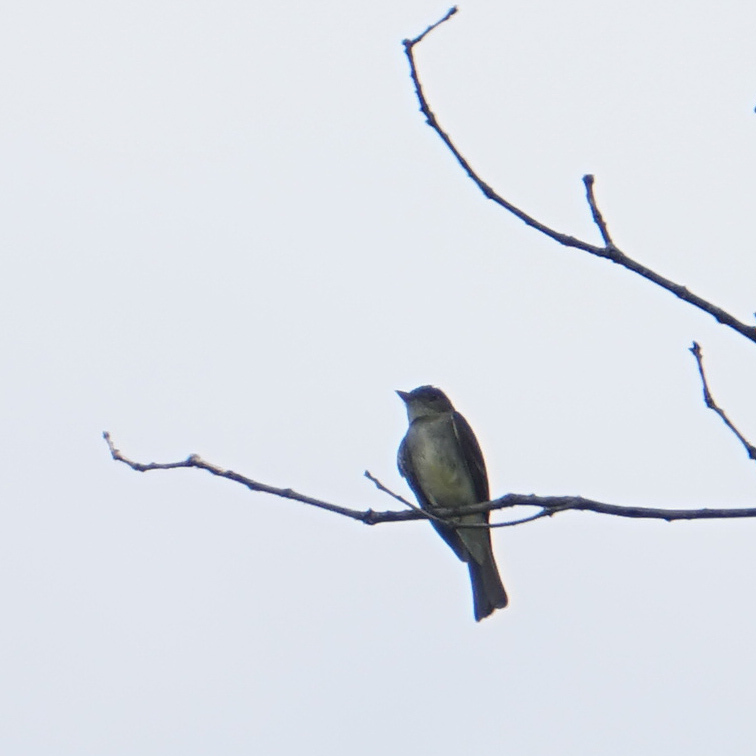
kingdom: Animalia
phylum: Chordata
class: Aves
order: Passeriformes
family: Tyrannidae
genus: Contopus
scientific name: Contopus virens
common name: Eastern wood-pewee
